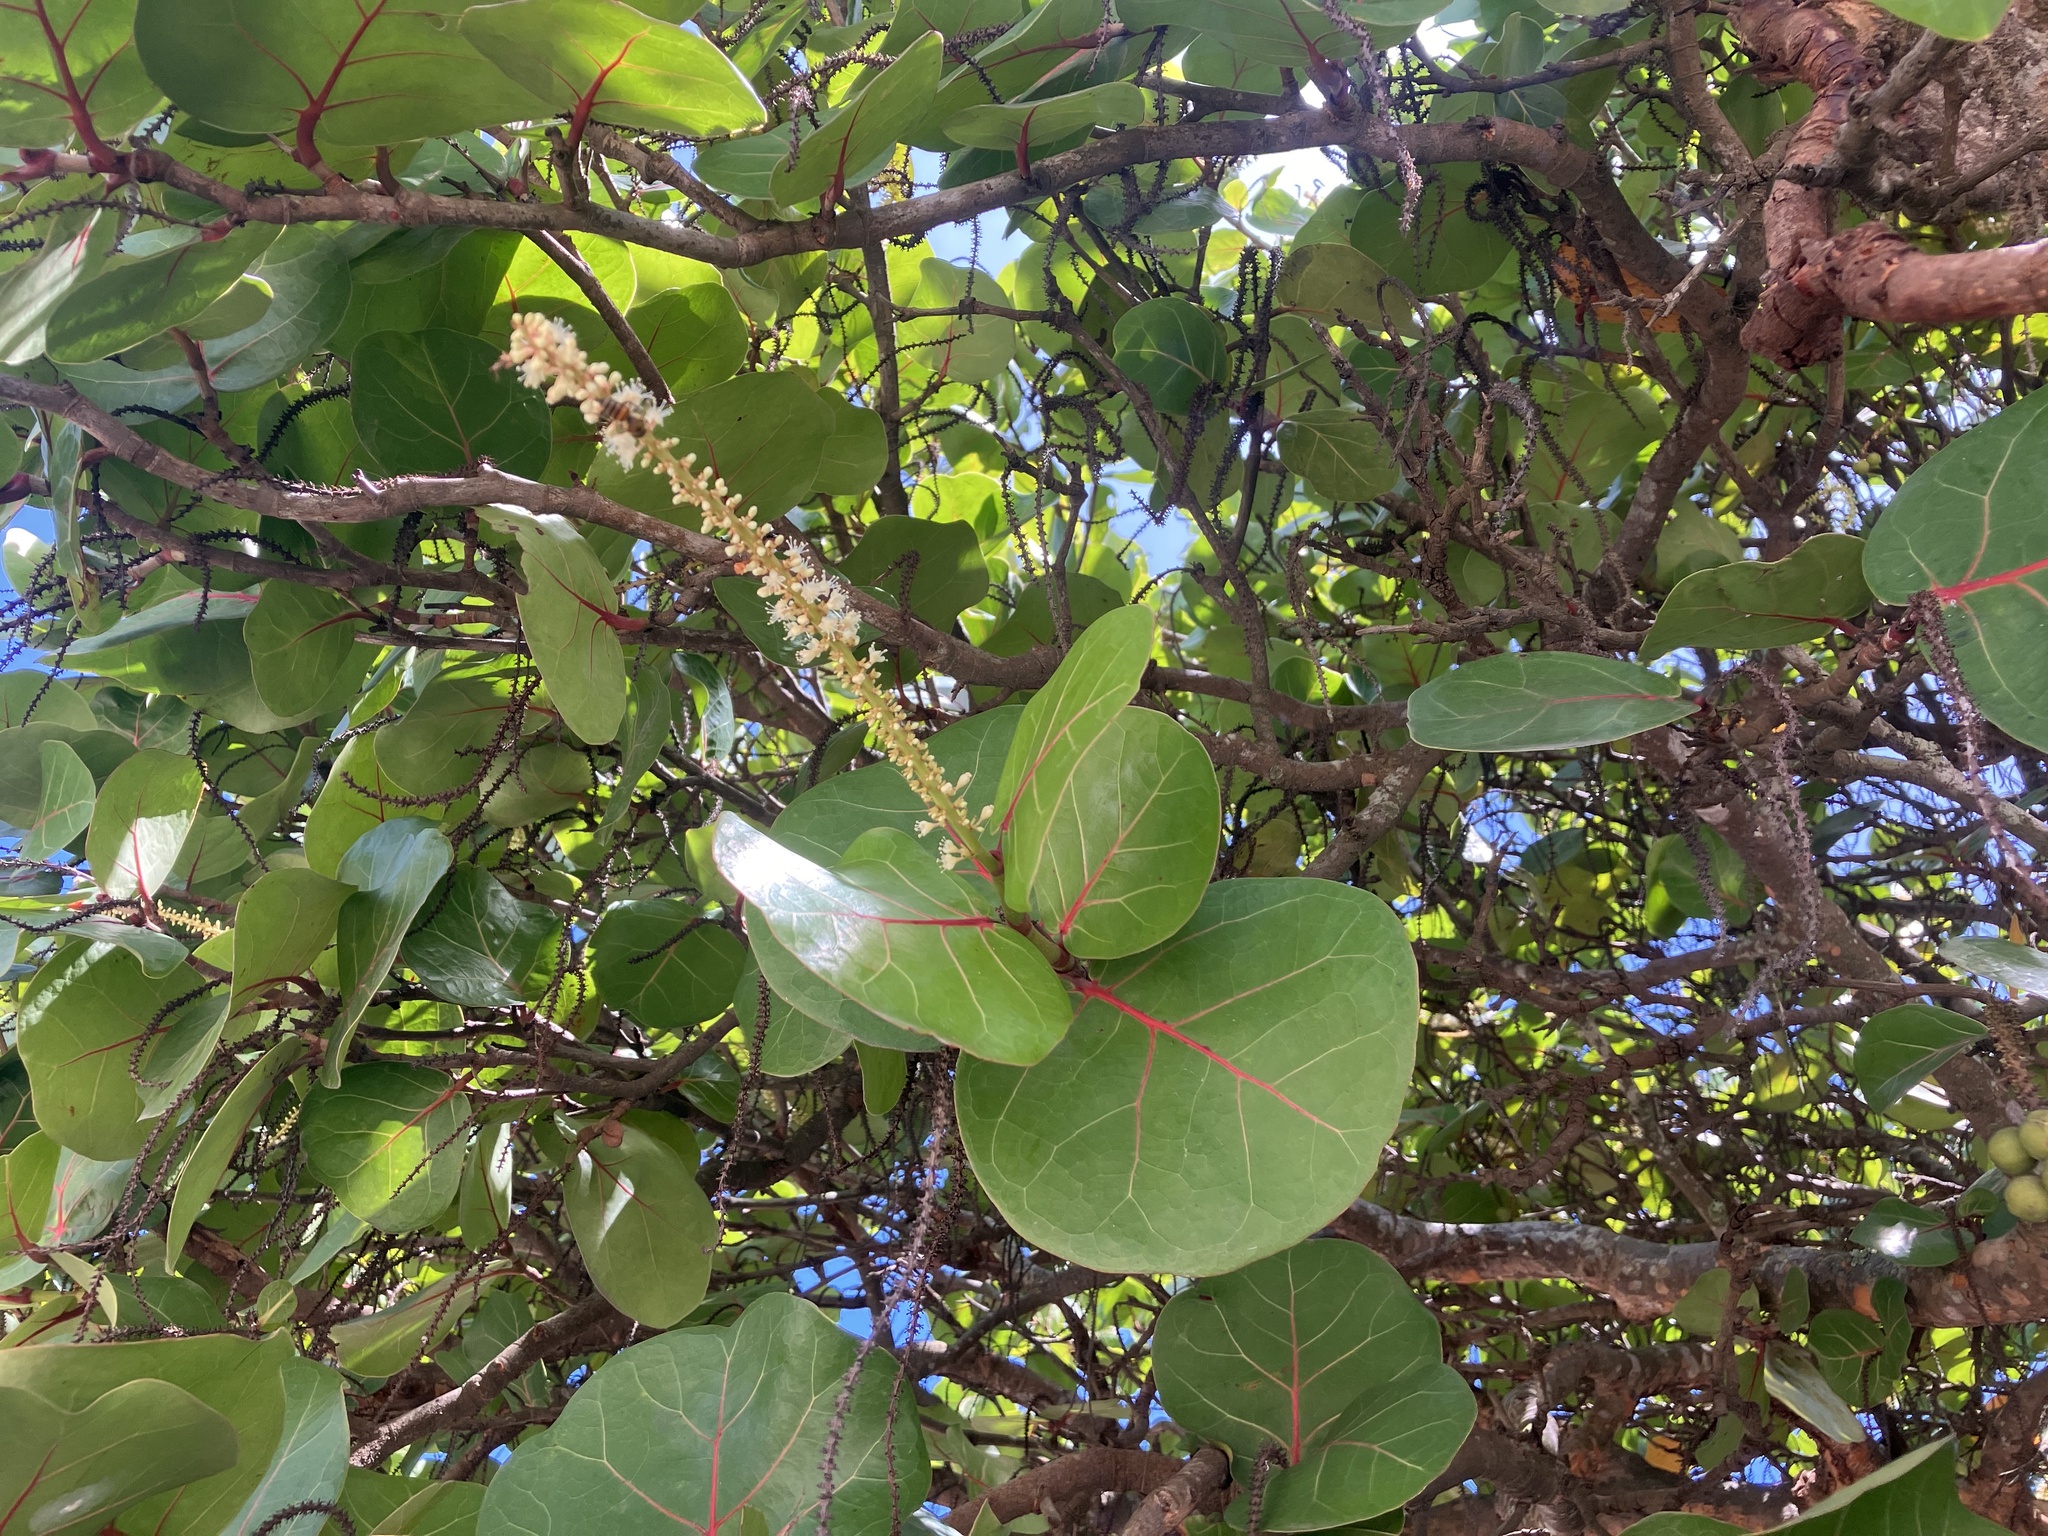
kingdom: Plantae
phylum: Tracheophyta
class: Magnoliopsida
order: Caryophyllales
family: Polygonaceae
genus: Coccoloba
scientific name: Coccoloba uvifera
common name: Seagrape
